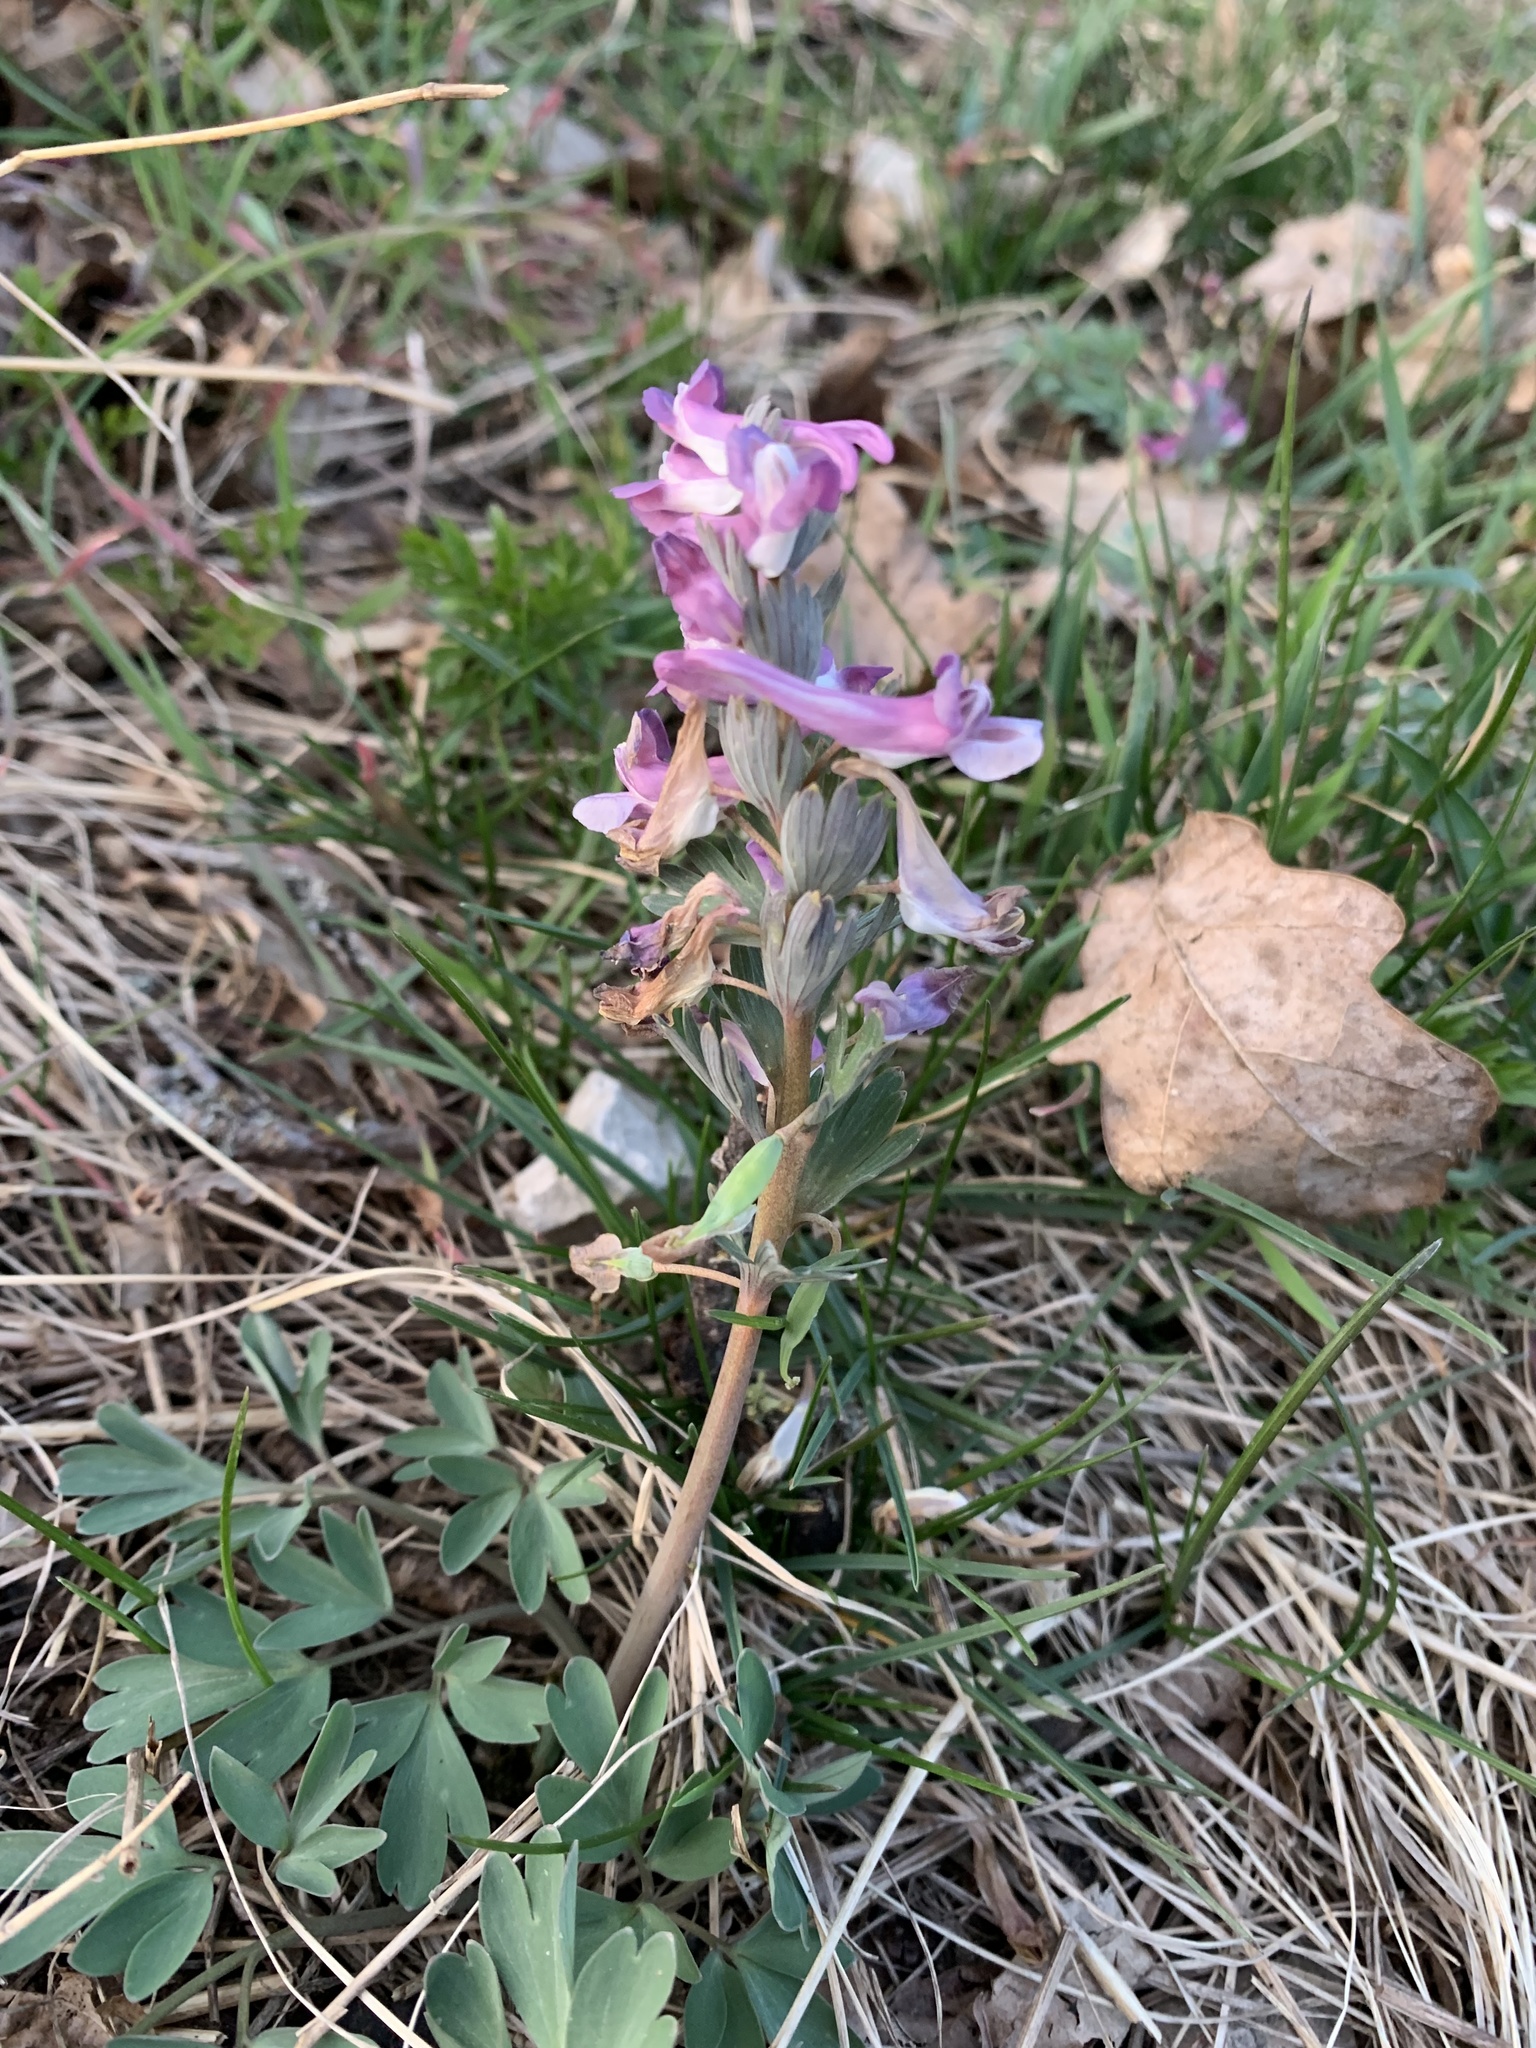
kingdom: Plantae
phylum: Tracheophyta
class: Magnoliopsida
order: Ranunculales
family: Papaveraceae
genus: Corydalis
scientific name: Corydalis solida
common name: Bird-in-a-bush
